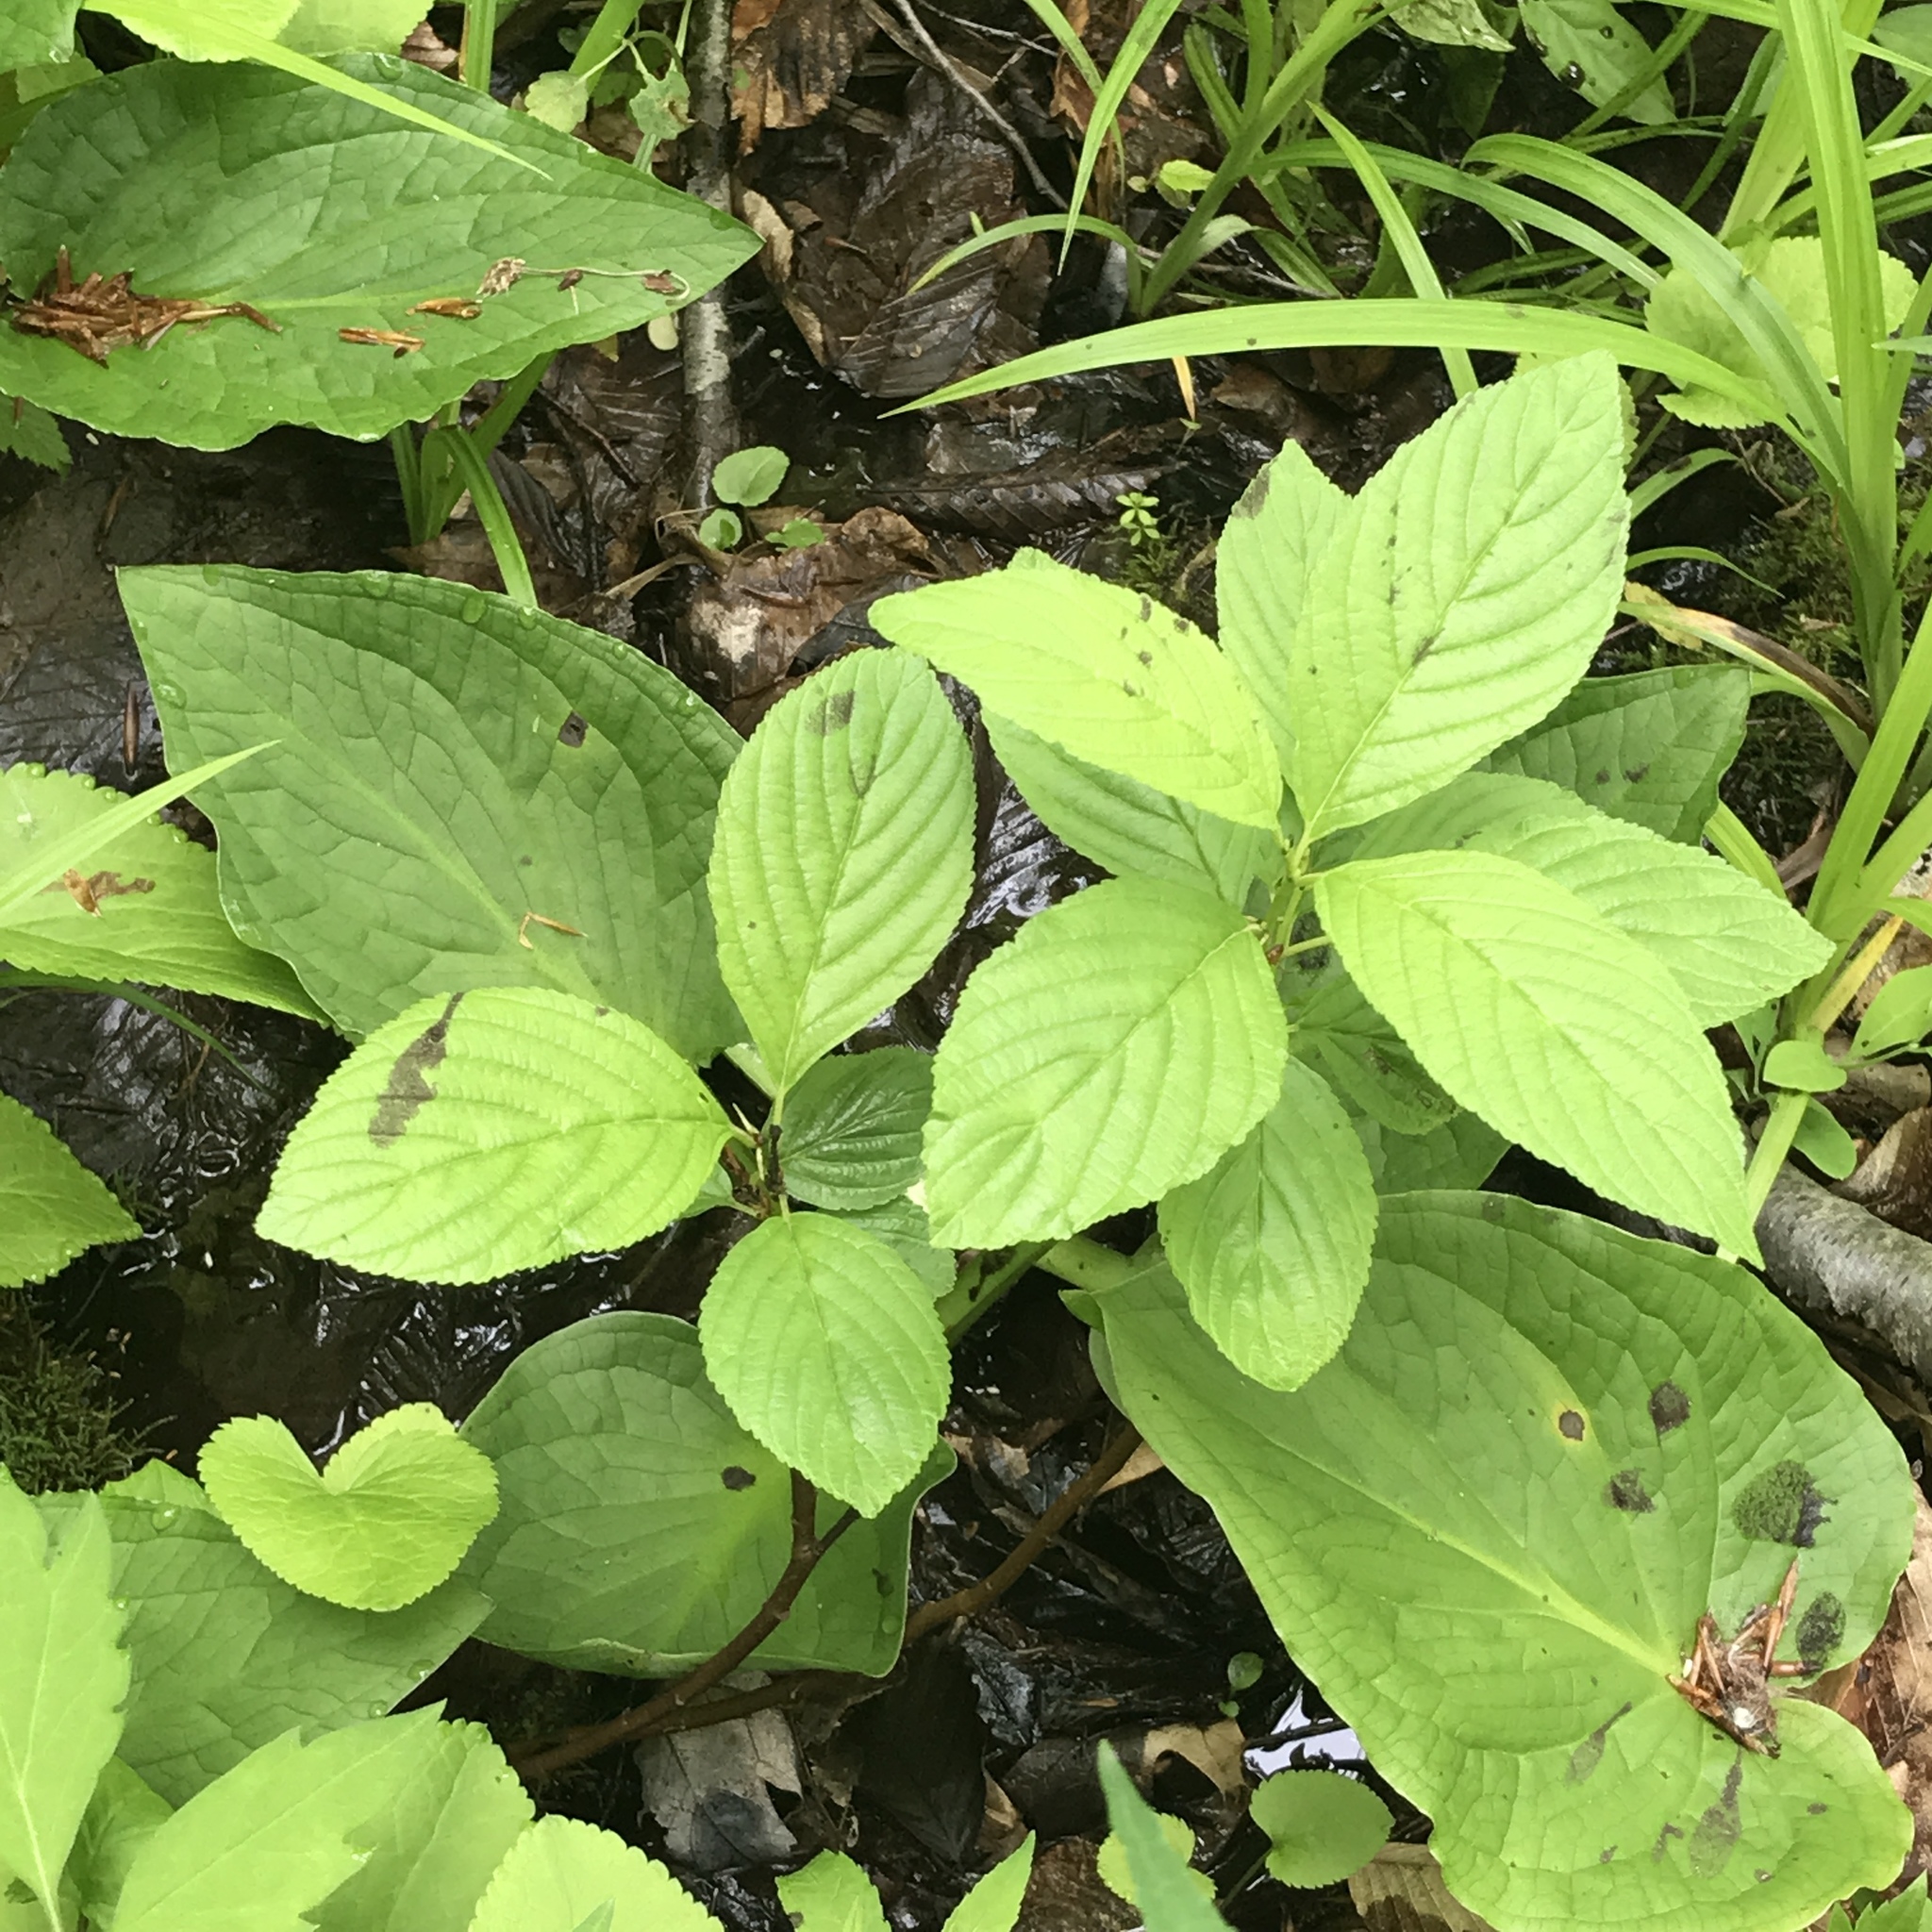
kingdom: Plantae
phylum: Tracheophyta
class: Magnoliopsida
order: Rosales
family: Rhamnaceae
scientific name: Rhamnaceae
